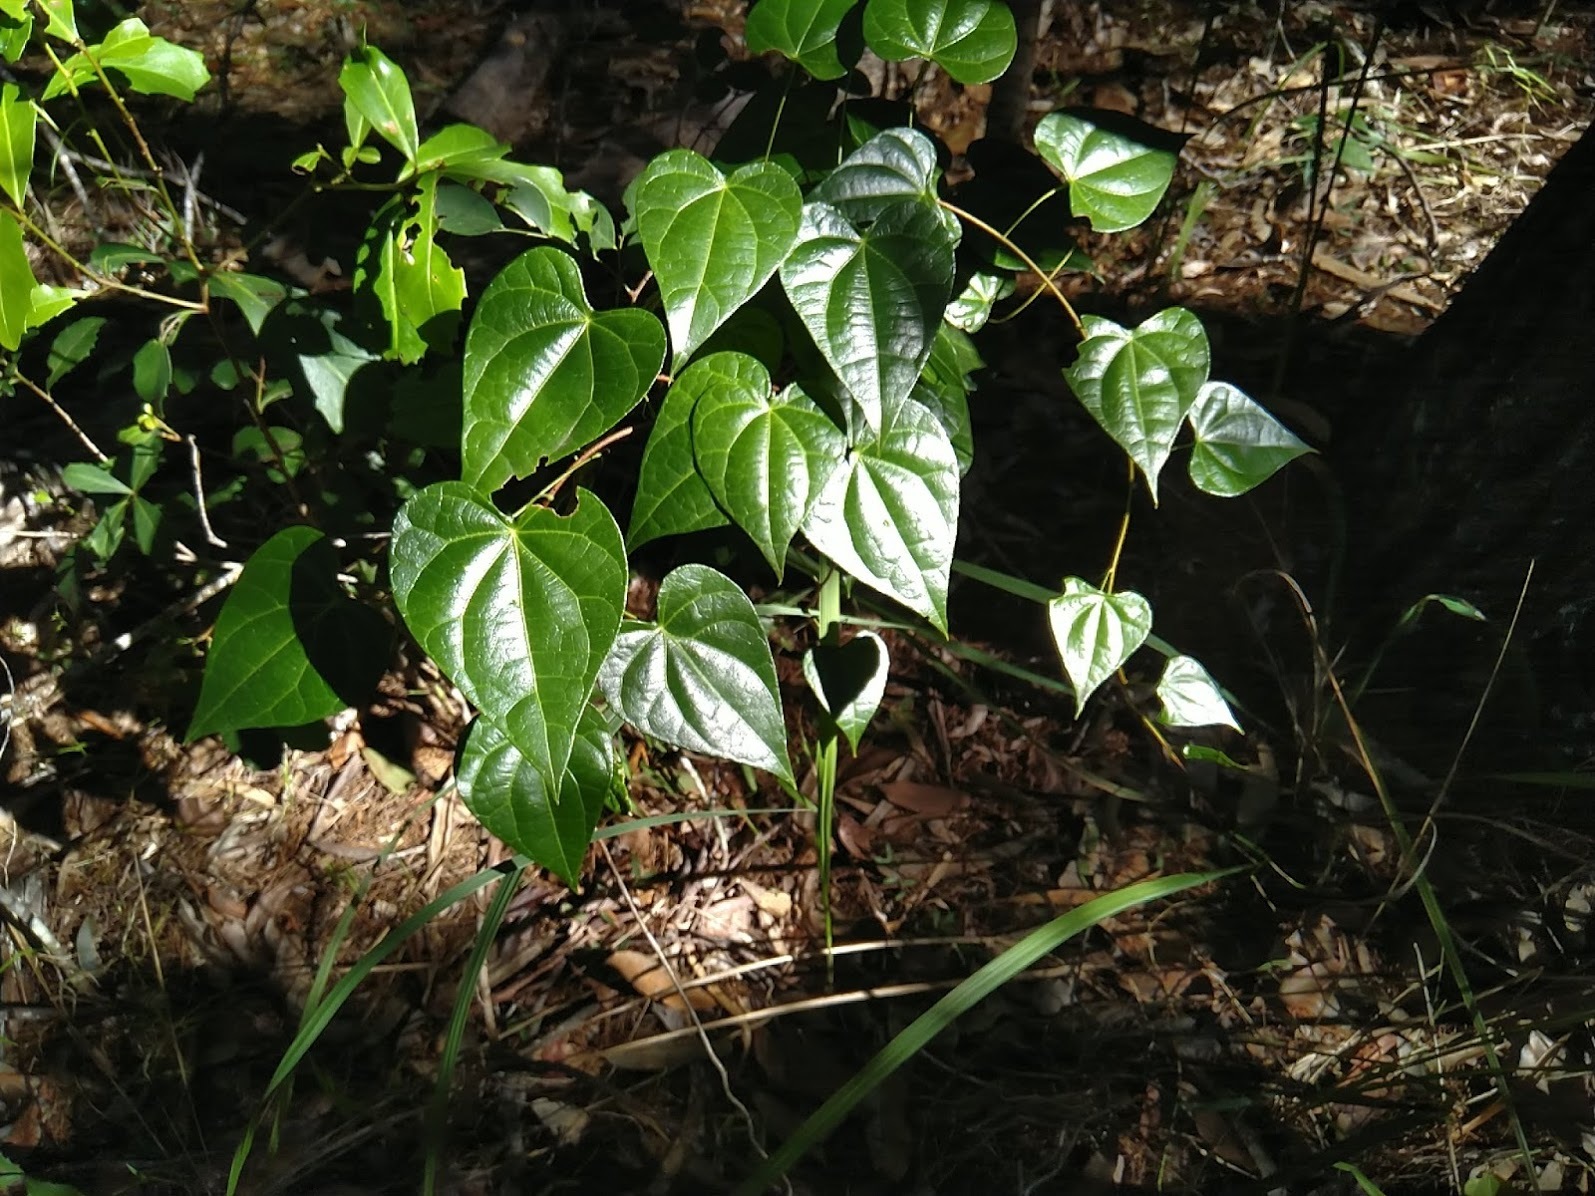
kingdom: Plantae
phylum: Tracheophyta
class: Magnoliopsida
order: Ranunculales
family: Menispermaceae
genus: Sarcopetalum
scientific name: Sarcopetalum harveyanum
